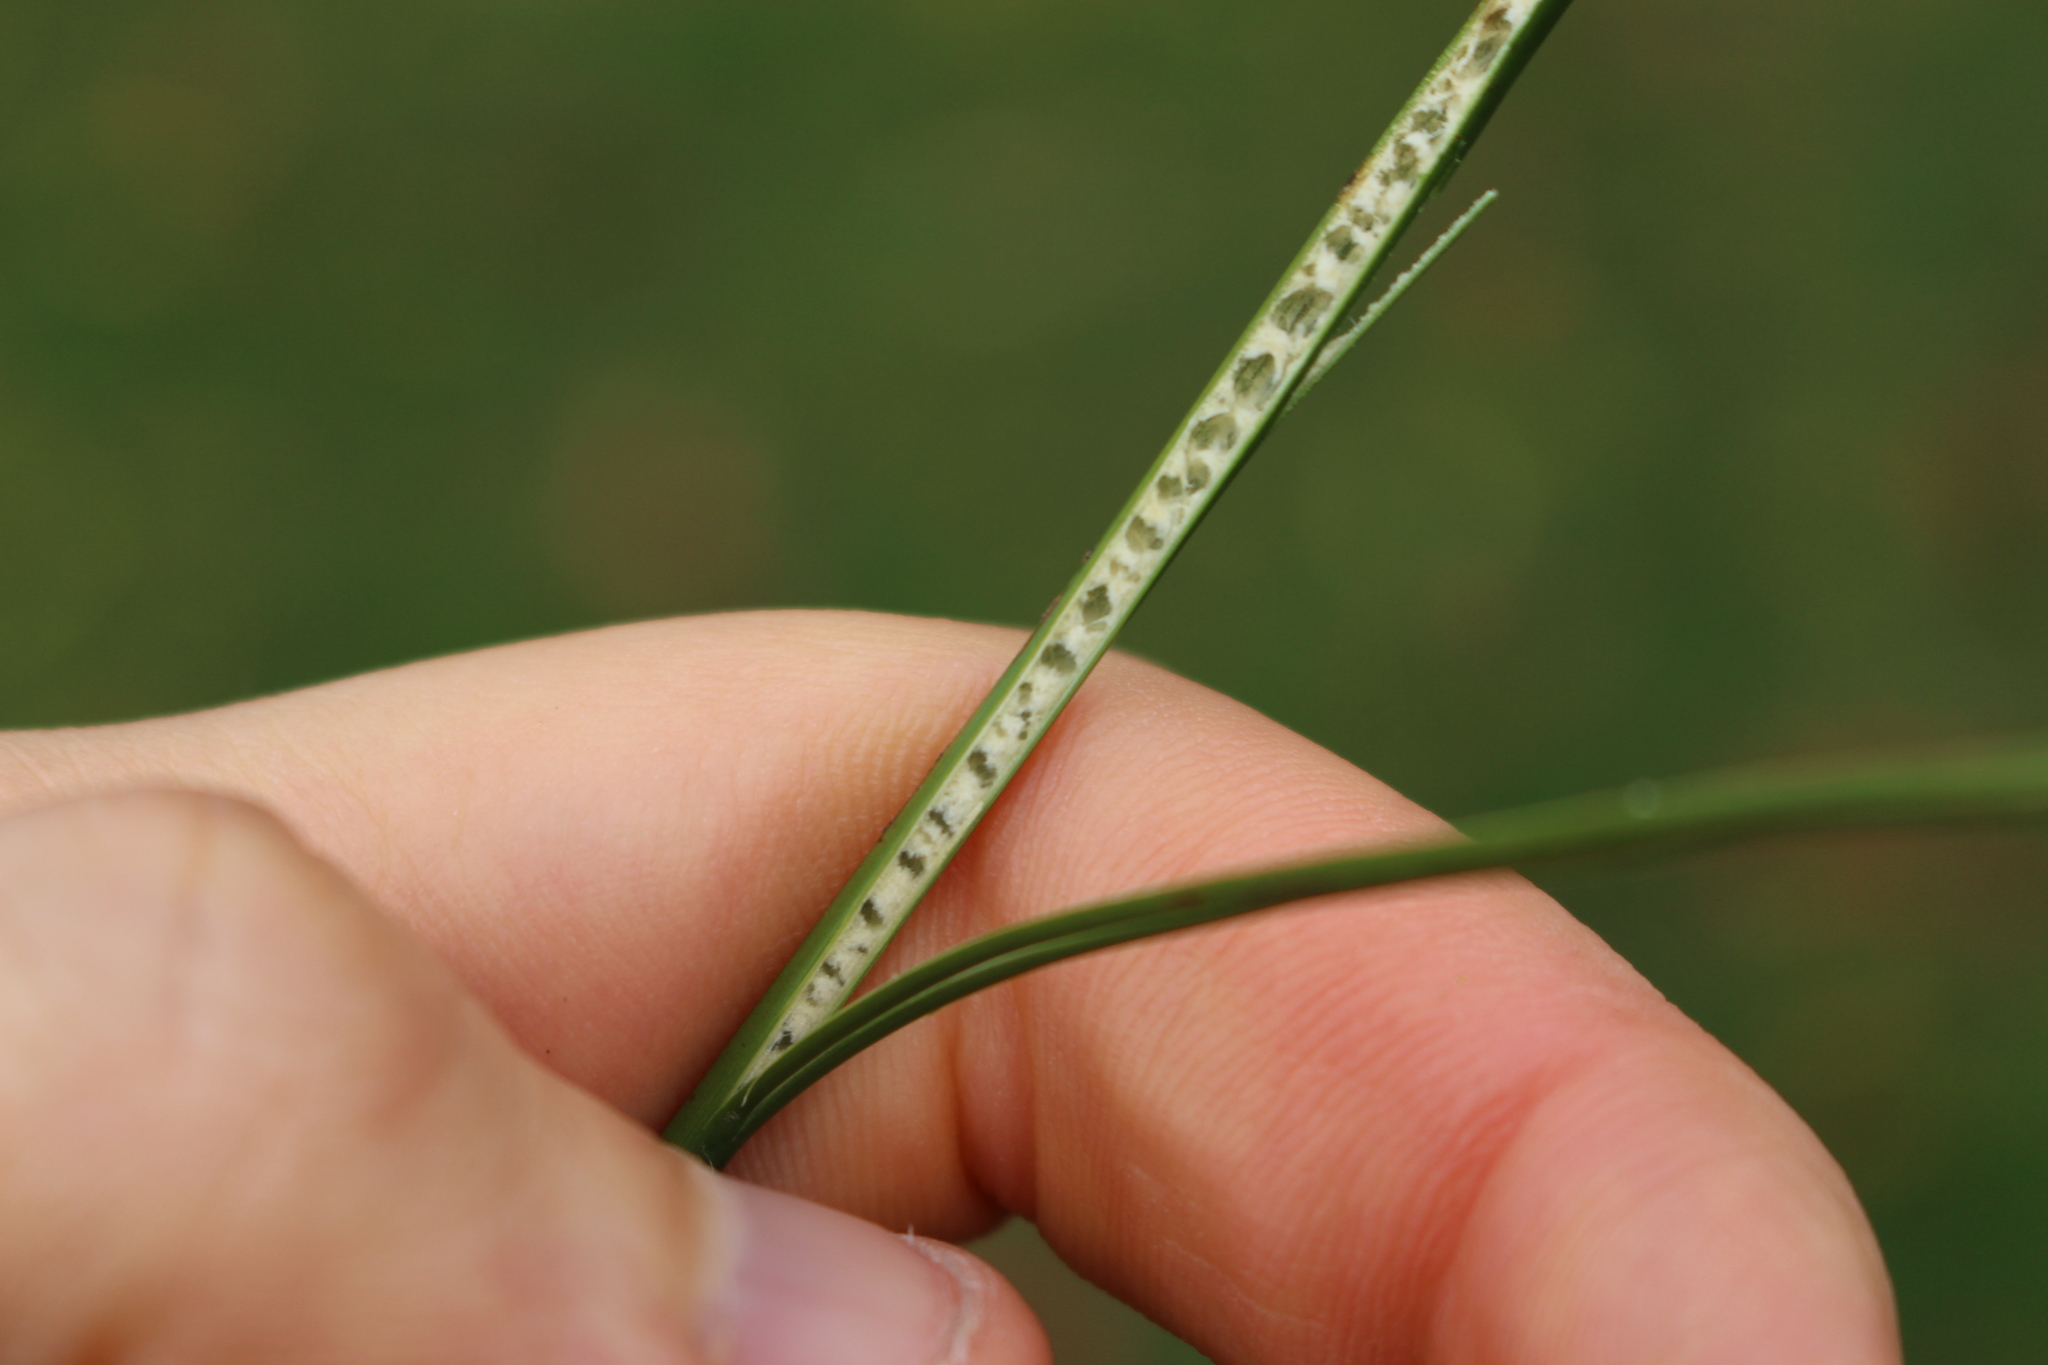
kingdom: Plantae
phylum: Tracheophyta
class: Liliopsida
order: Poales
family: Juncaceae
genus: Juncus
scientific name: Juncus edgariae
